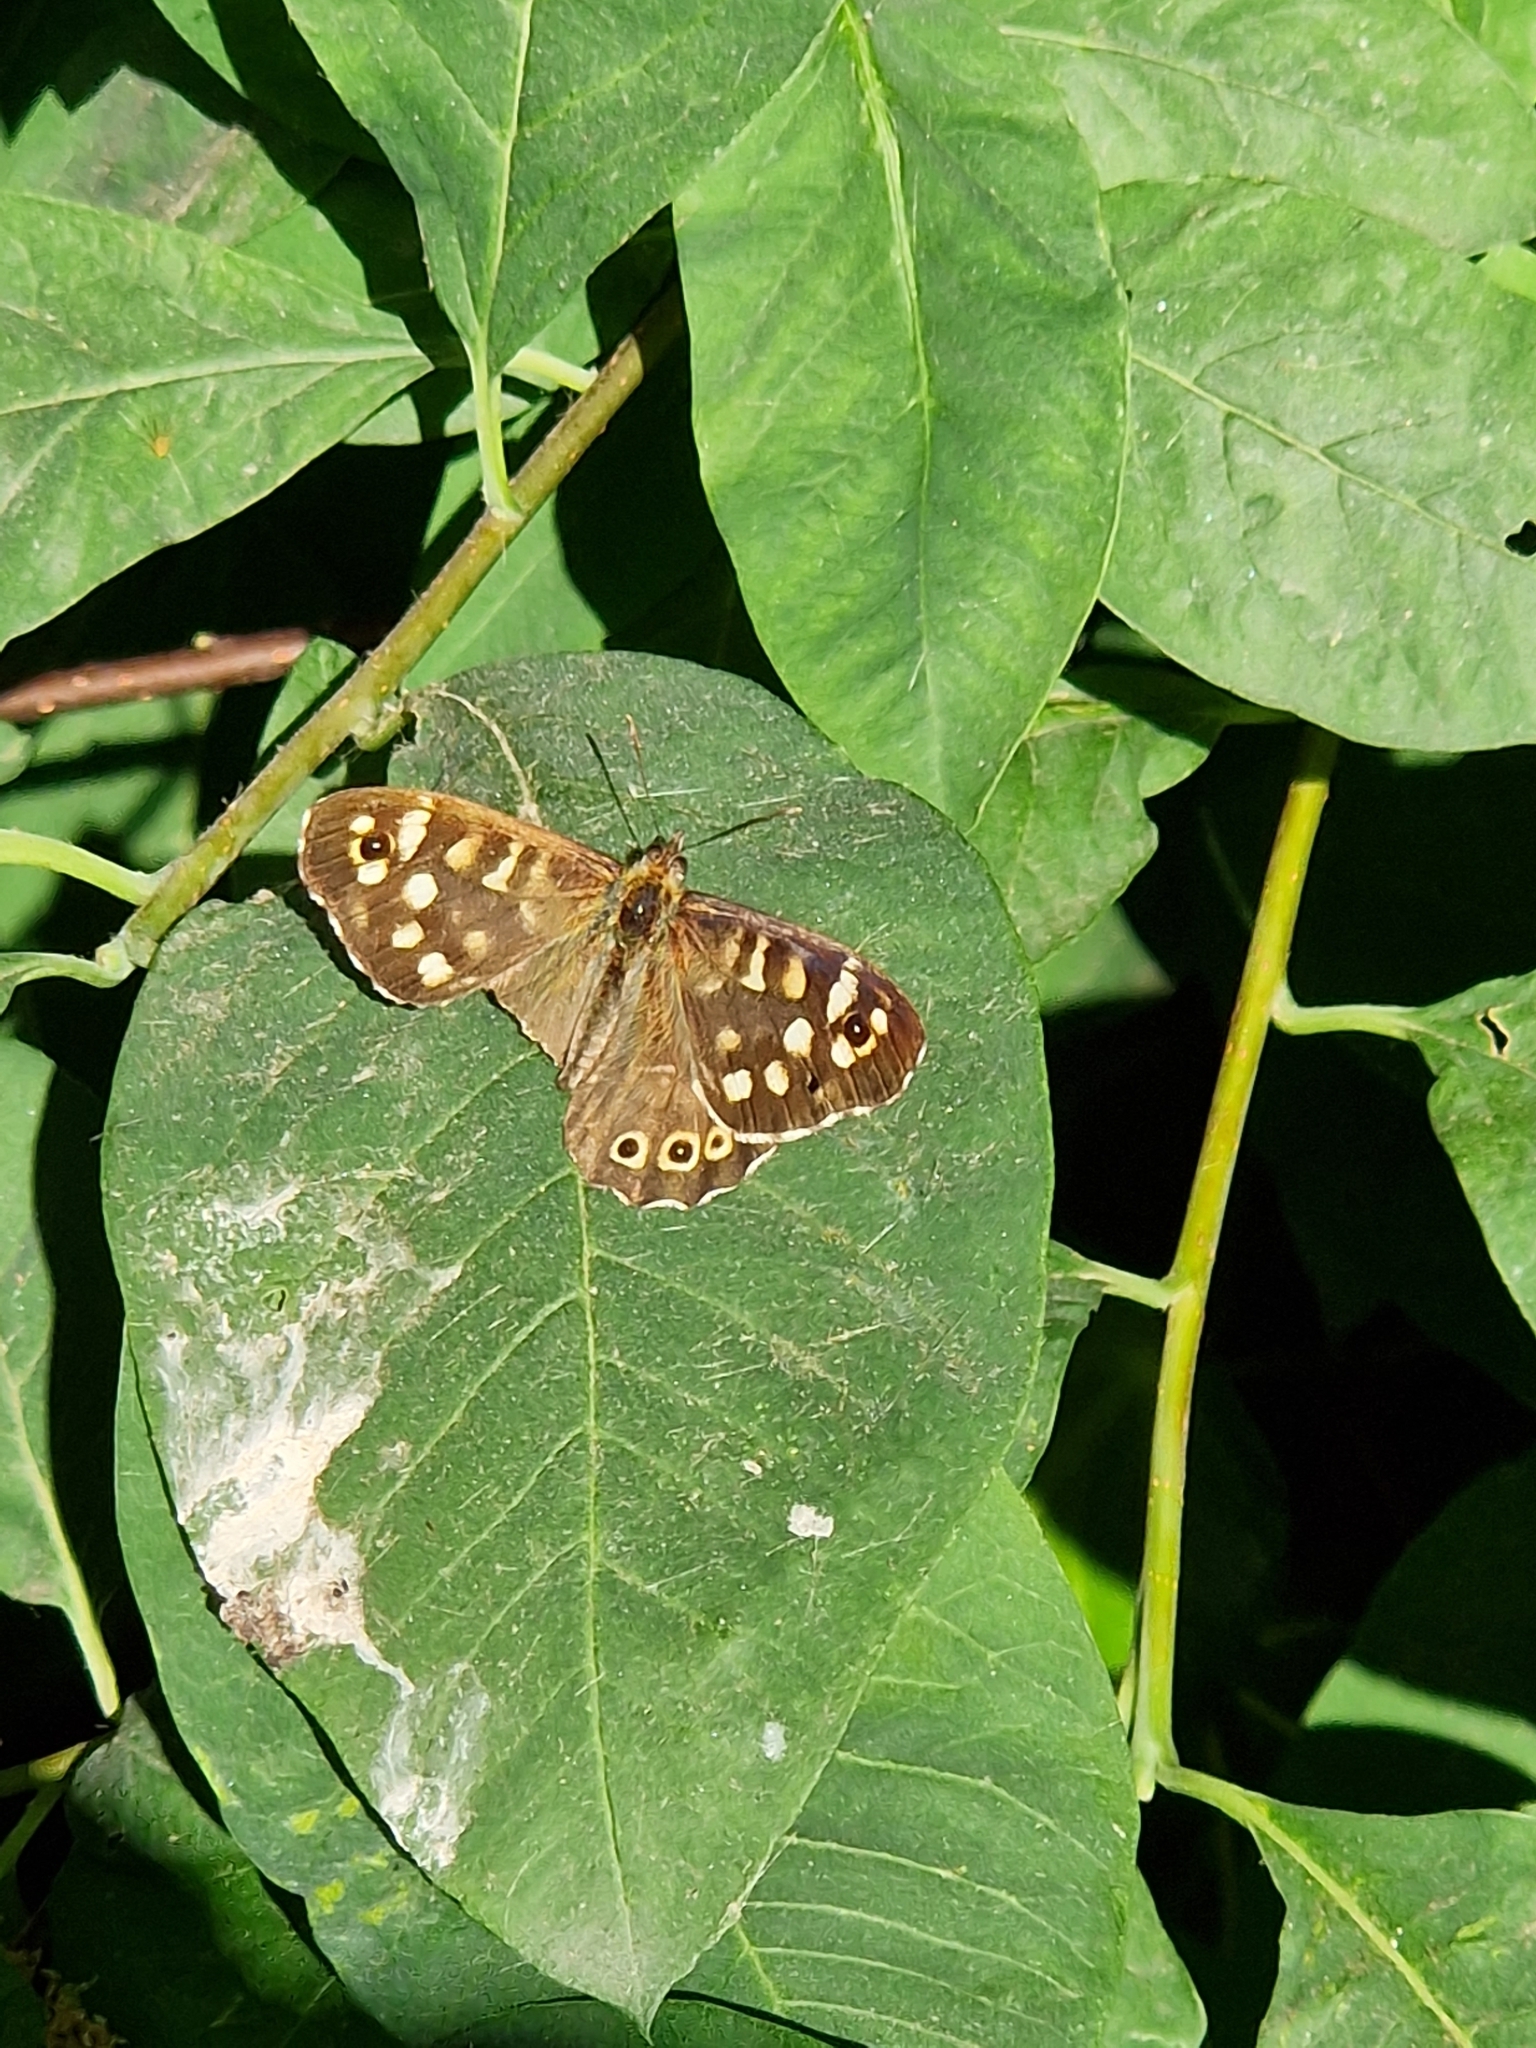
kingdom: Animalia
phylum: Arthropoda
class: Insecta
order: Lepidoptera
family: Nymphalidae
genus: Pararge
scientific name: Pararge aegeria
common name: Speckled wood
